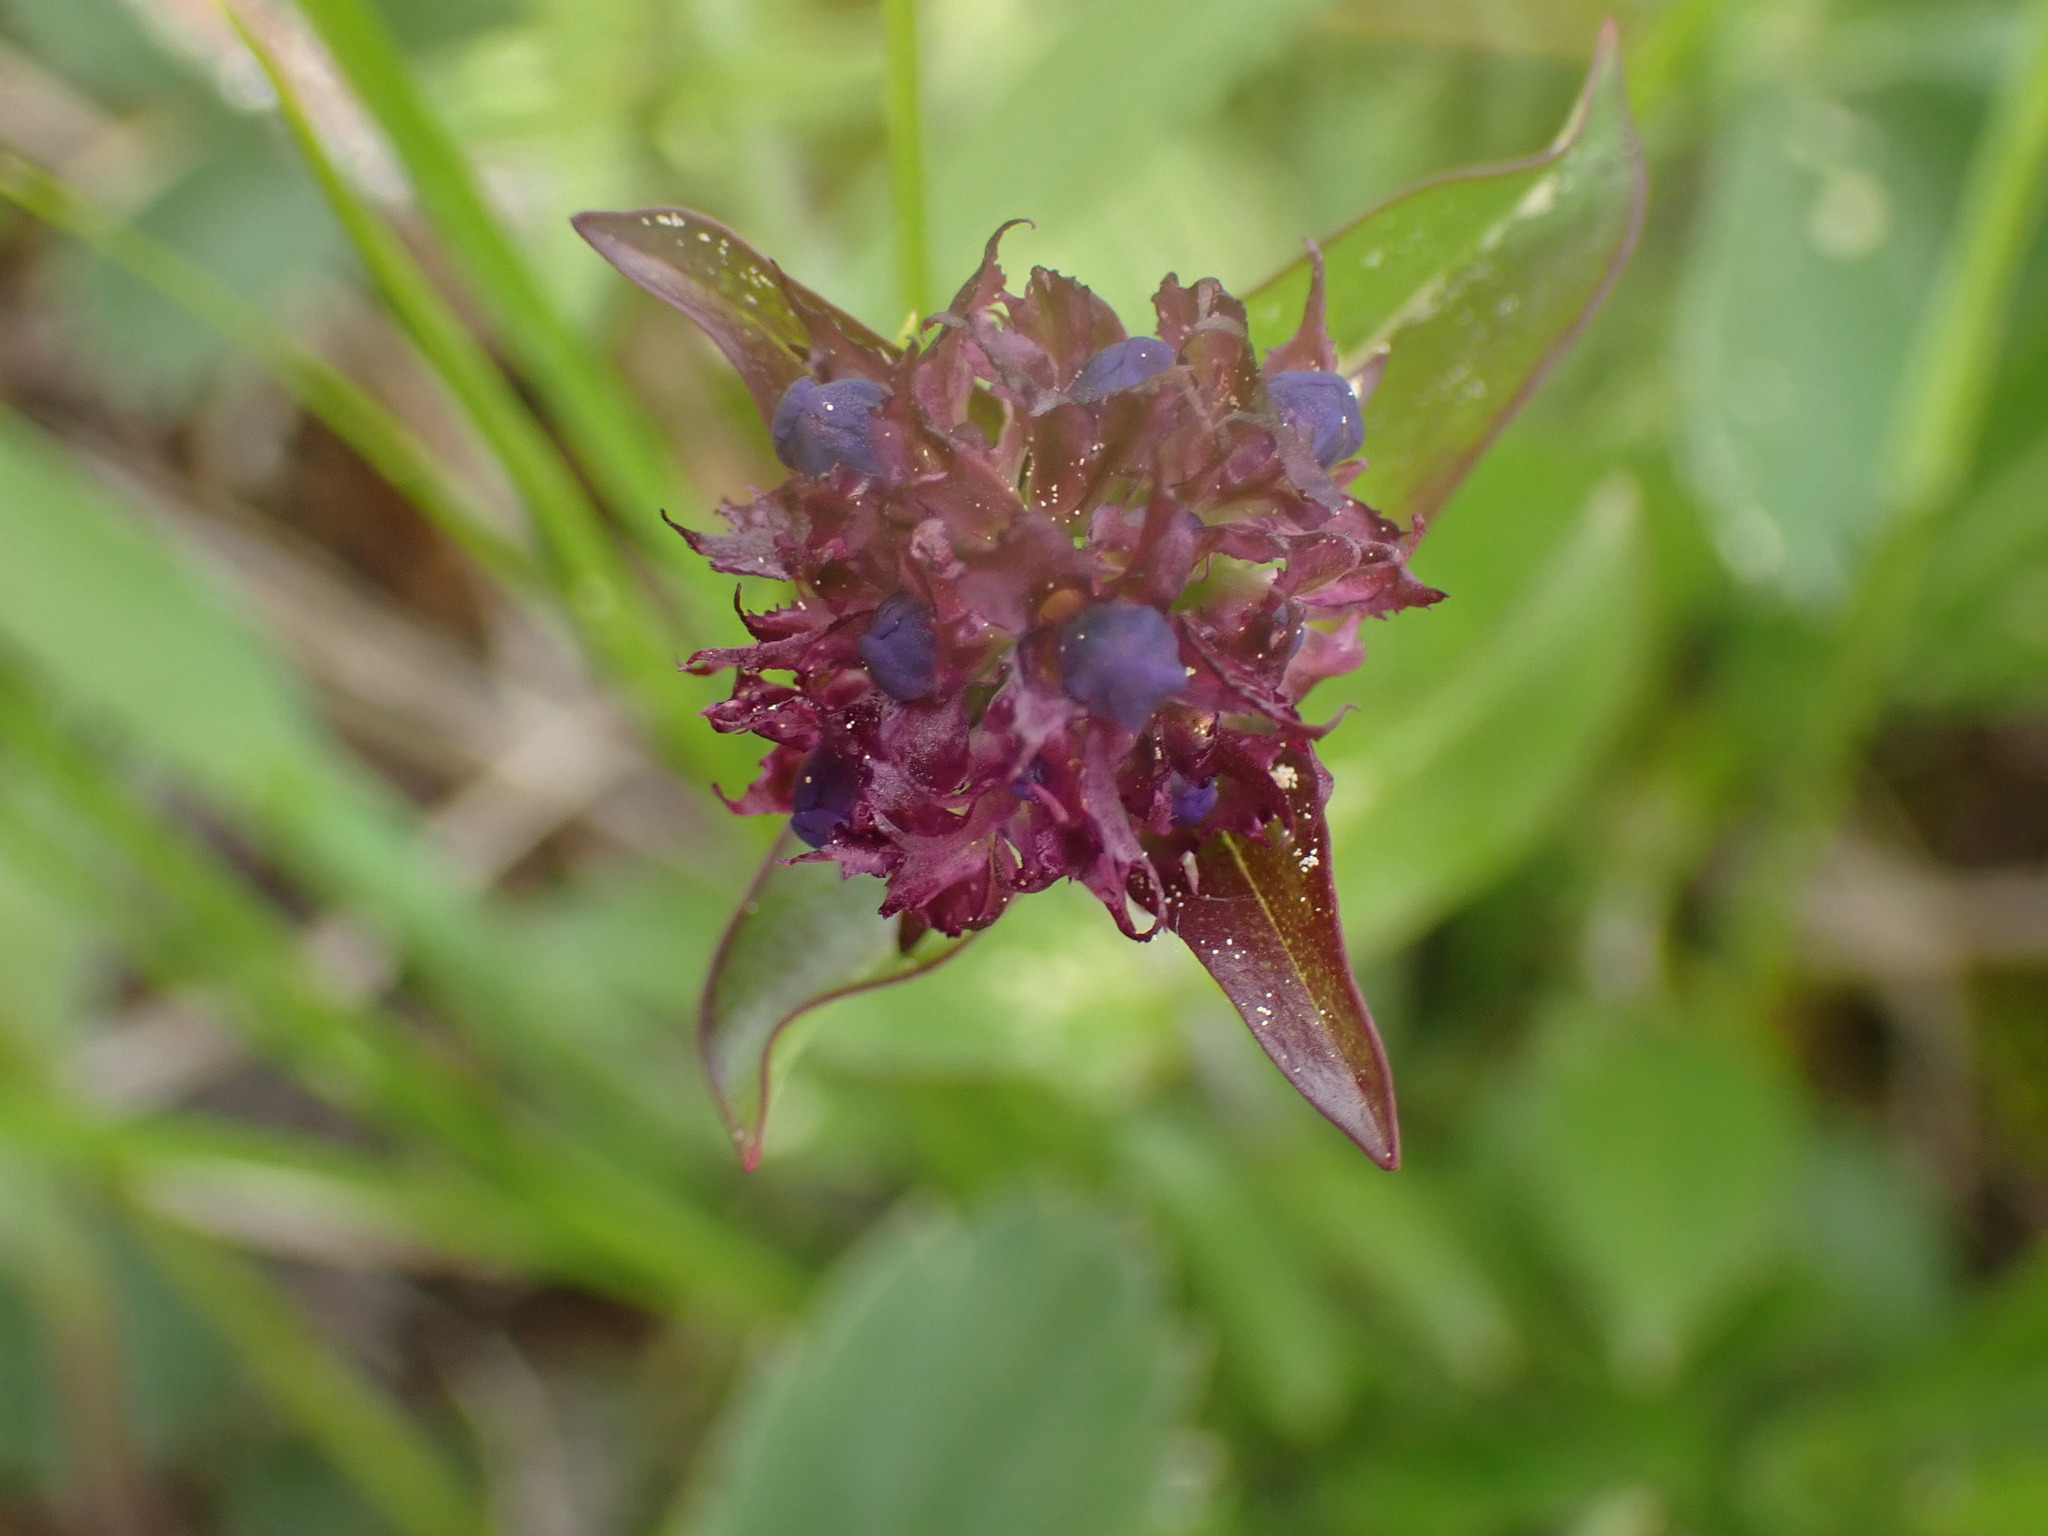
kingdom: Plantae
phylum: Tracheophyta
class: Magnoliopsida
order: Lamiales
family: Plantaginaceae
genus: Penstemon
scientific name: Penstemon procerus
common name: Small-flower penstemon
